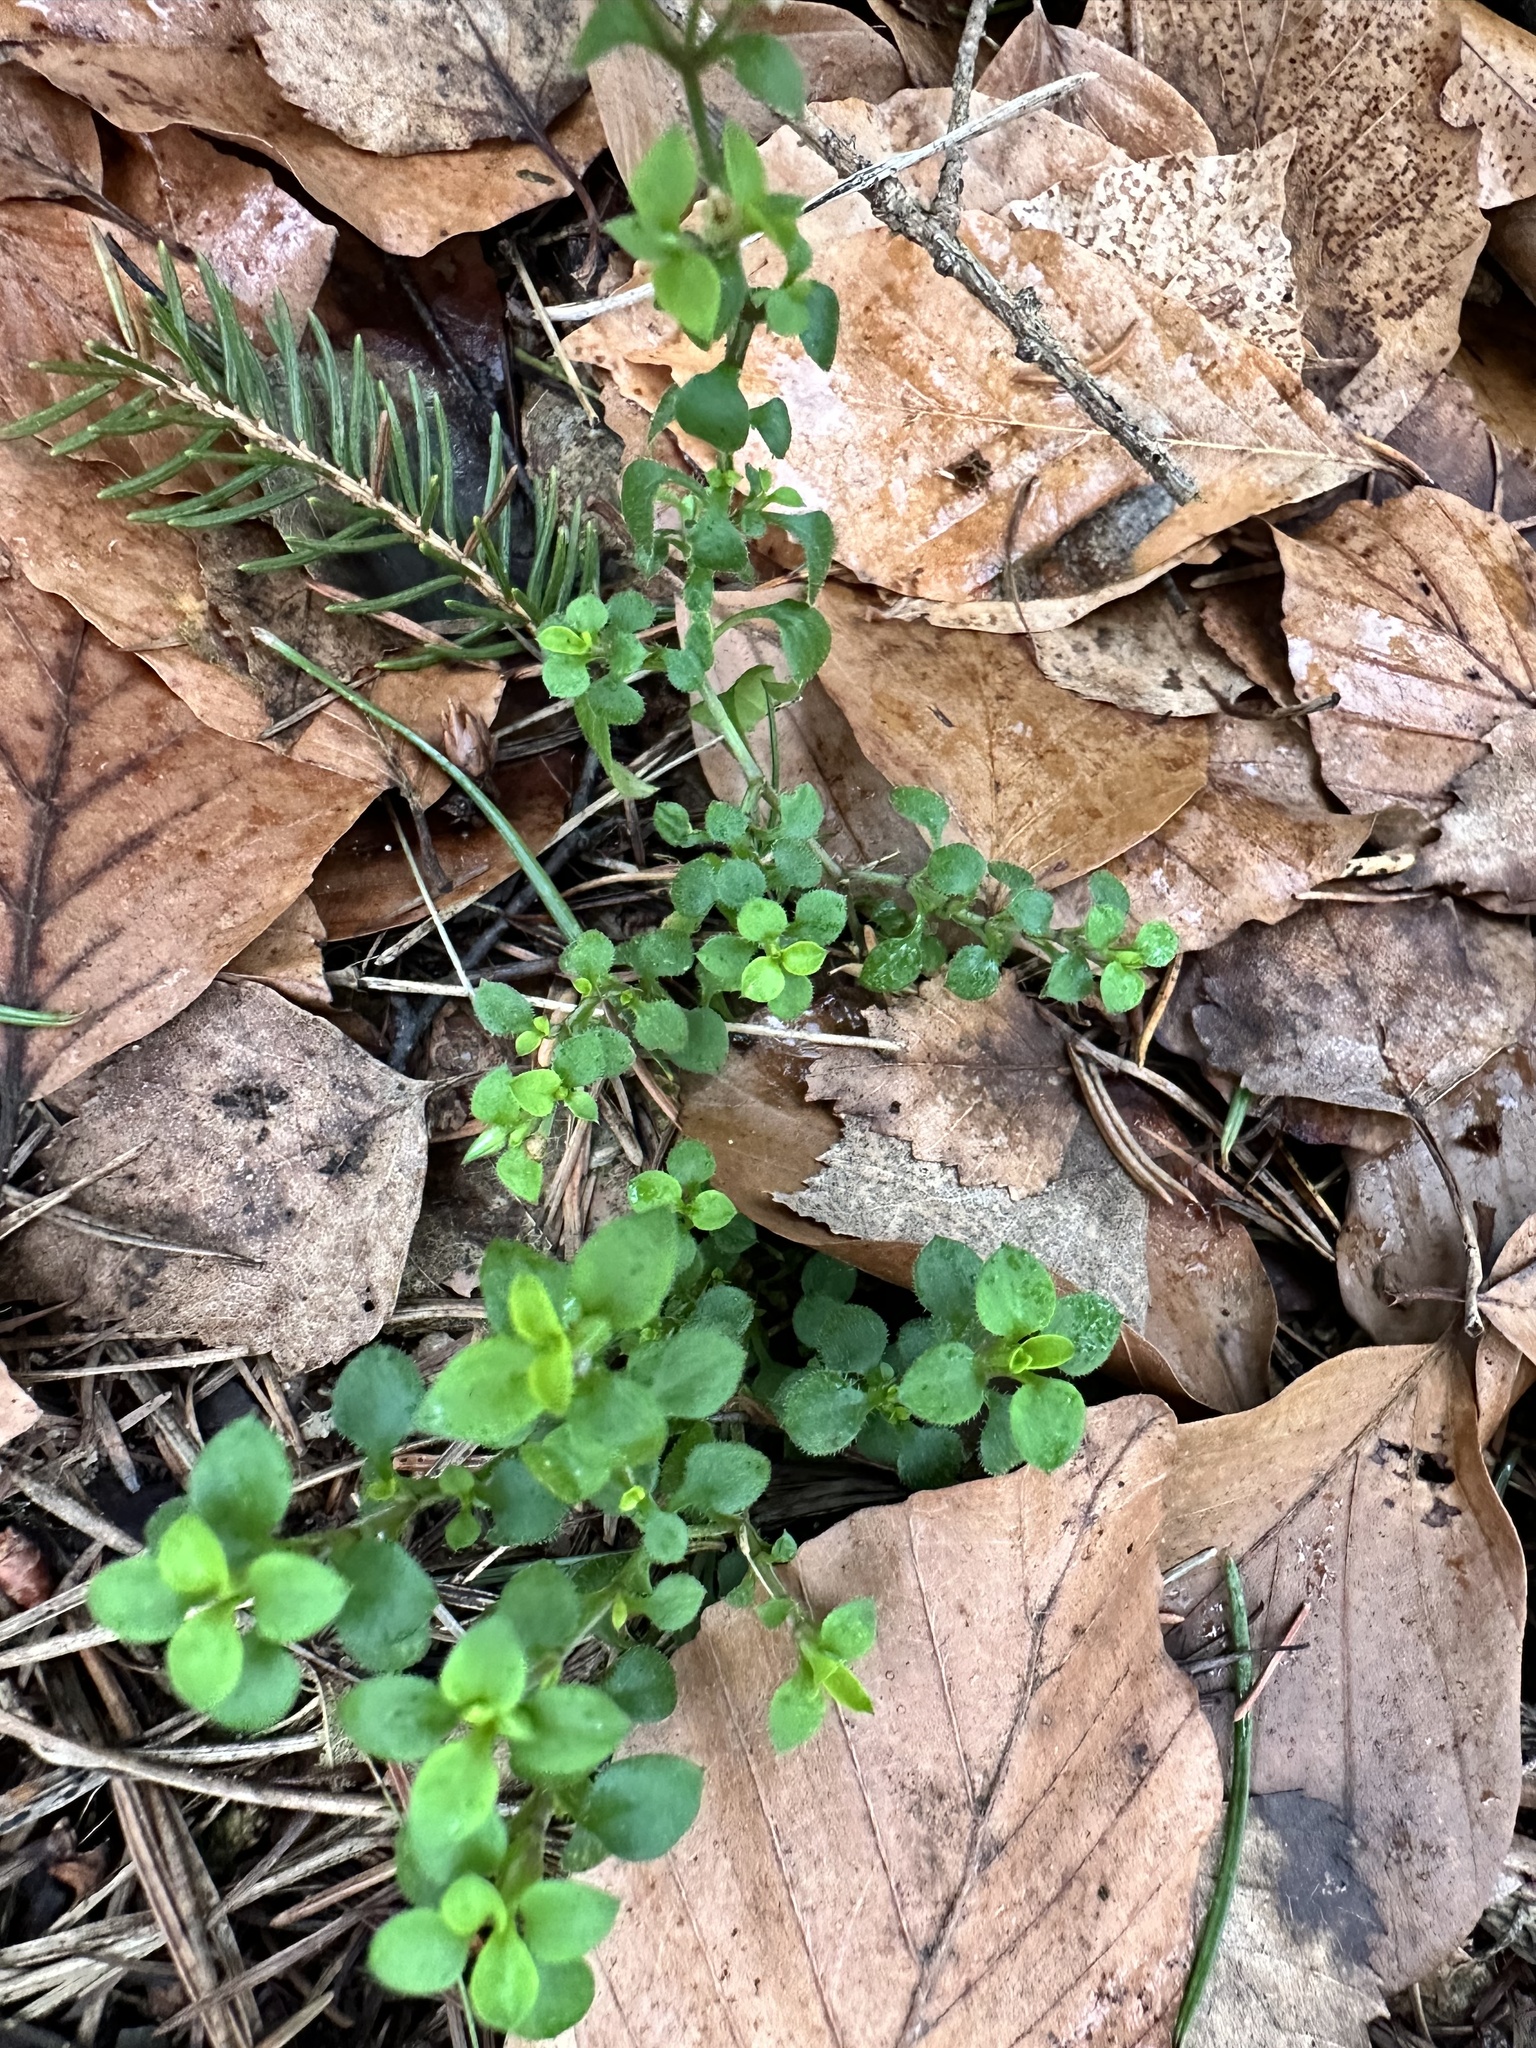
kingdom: Plantae
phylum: Tracheophyta
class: Magnoliopsida
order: Caryophyllales
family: Caryophyllaceae
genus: Moehringia
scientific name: Moehringia trinervia
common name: Three-nerved sandwort
